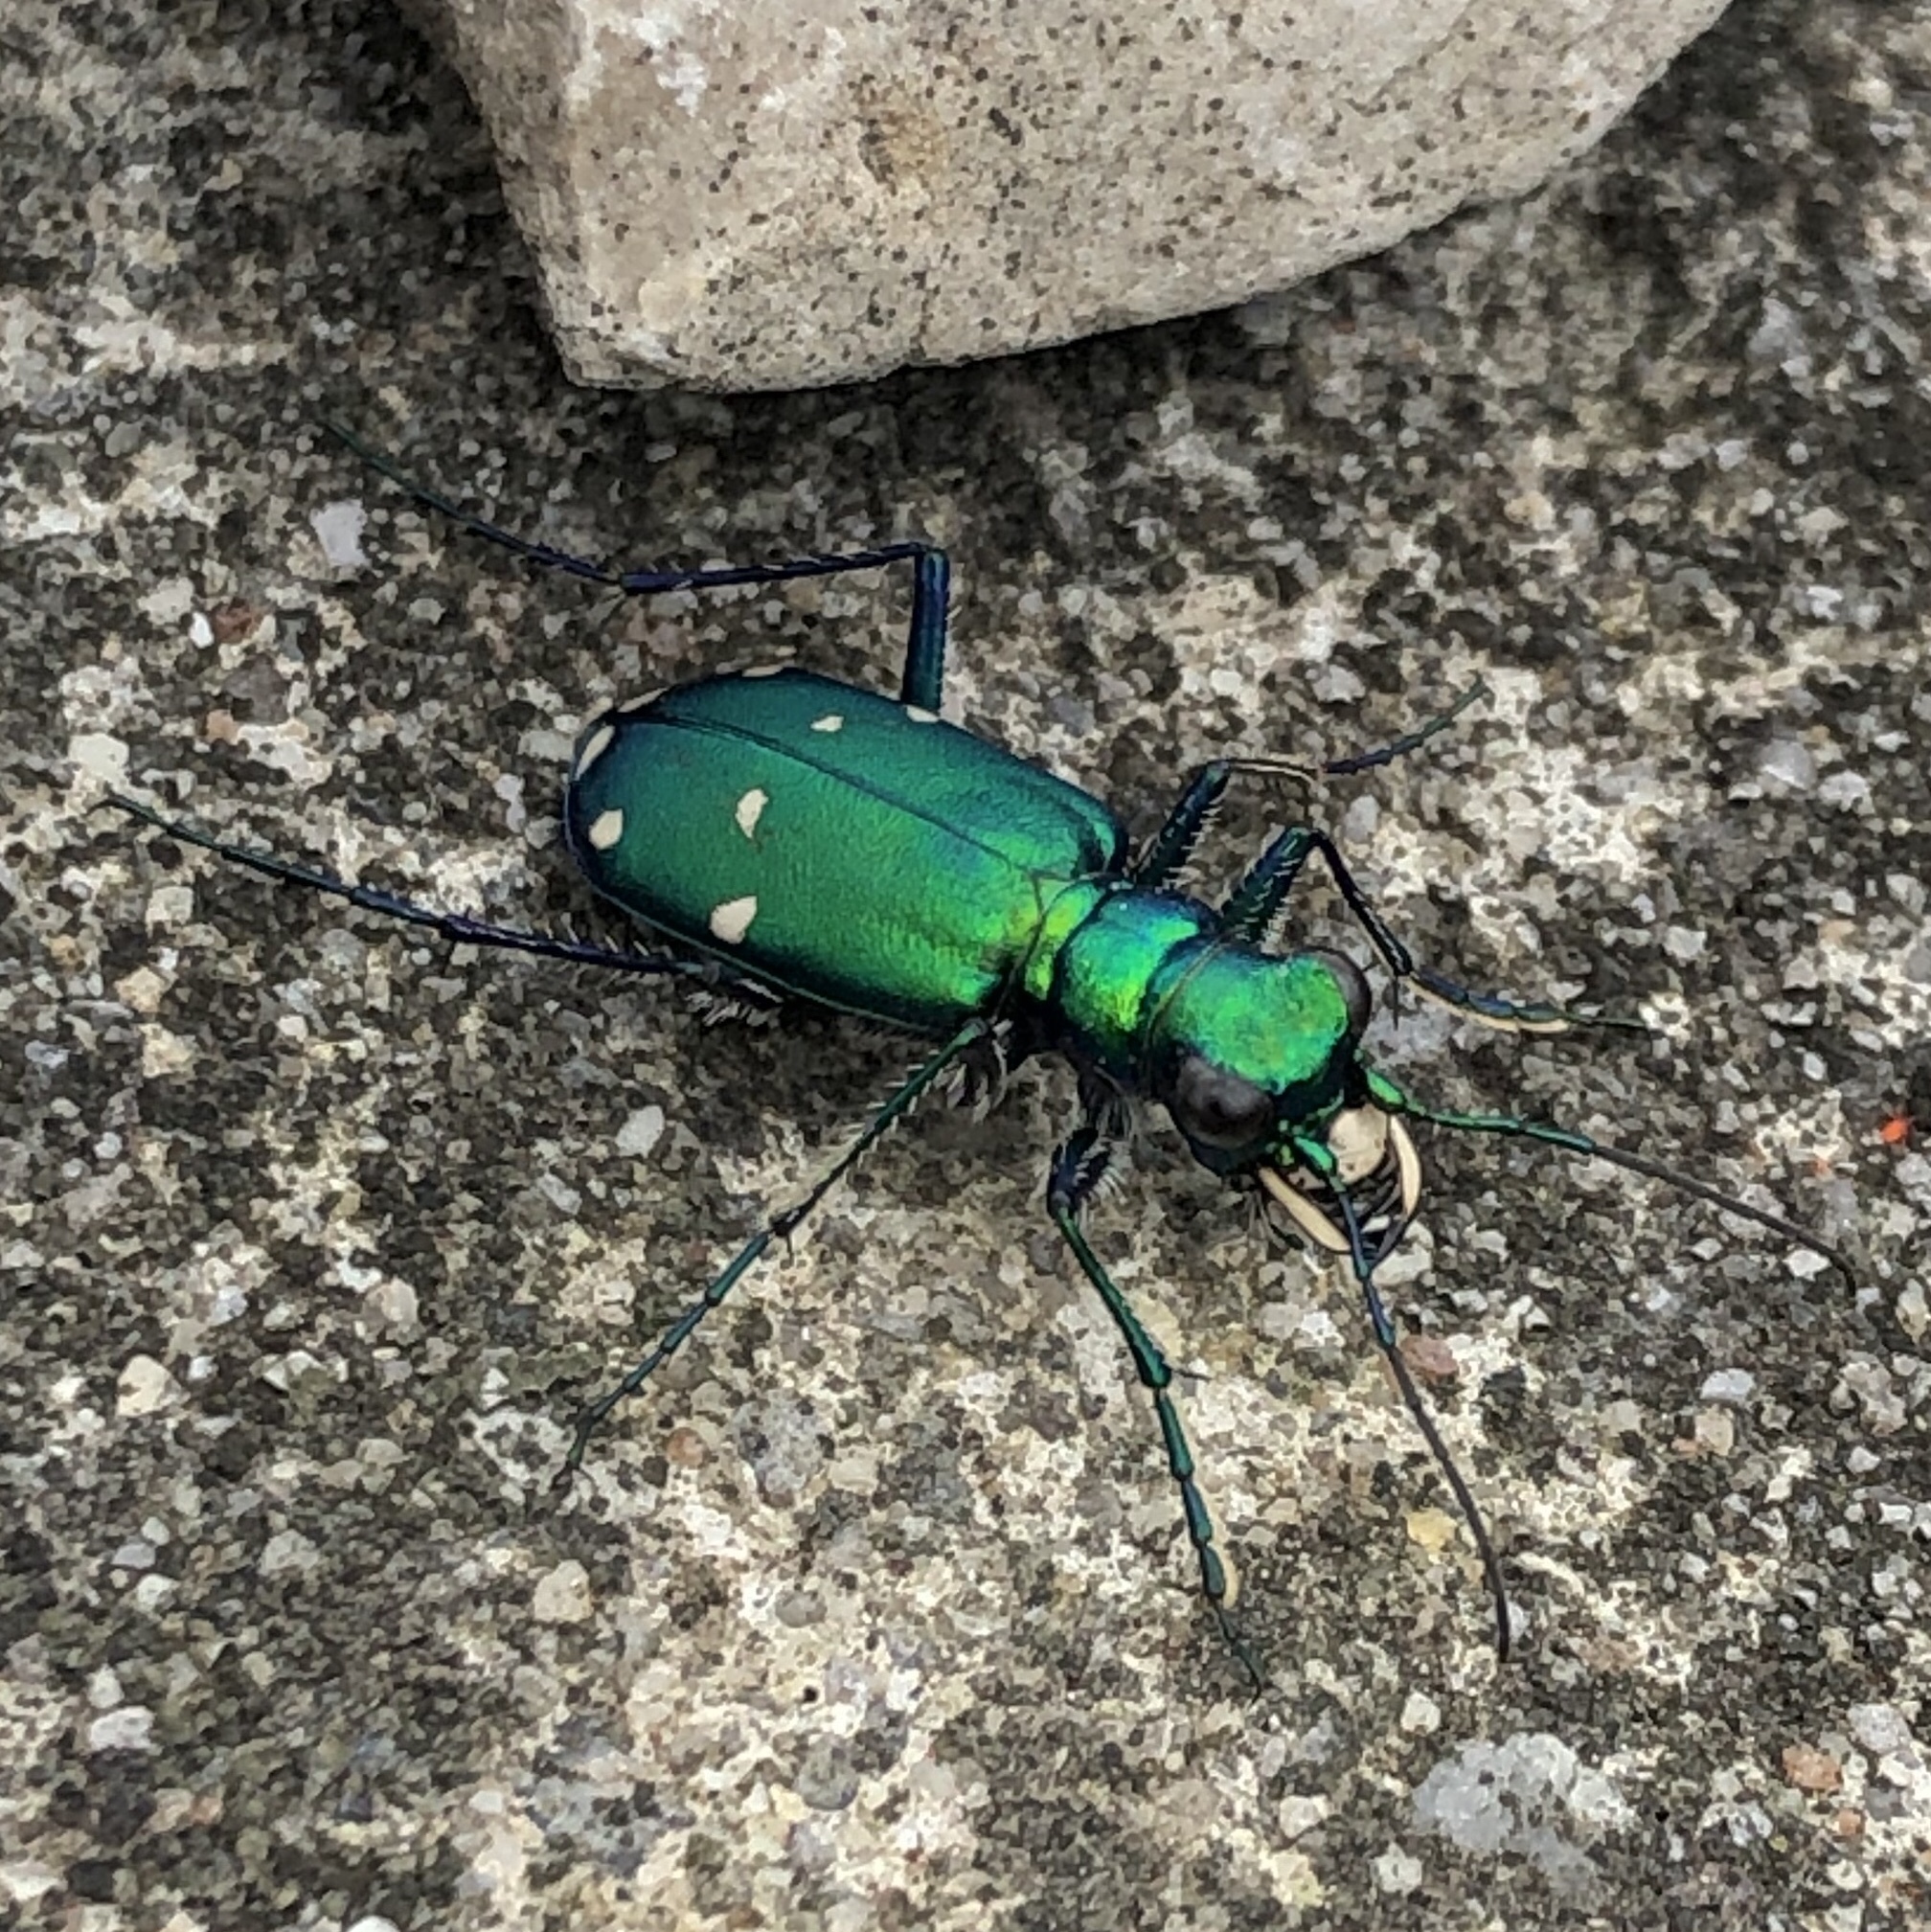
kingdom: Animalia
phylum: Arthropoda
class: Insecta
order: Coleoptera
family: Carabidae
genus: Cicindela
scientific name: Cicindela sexguttata
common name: Six-spotted tiger beetle
